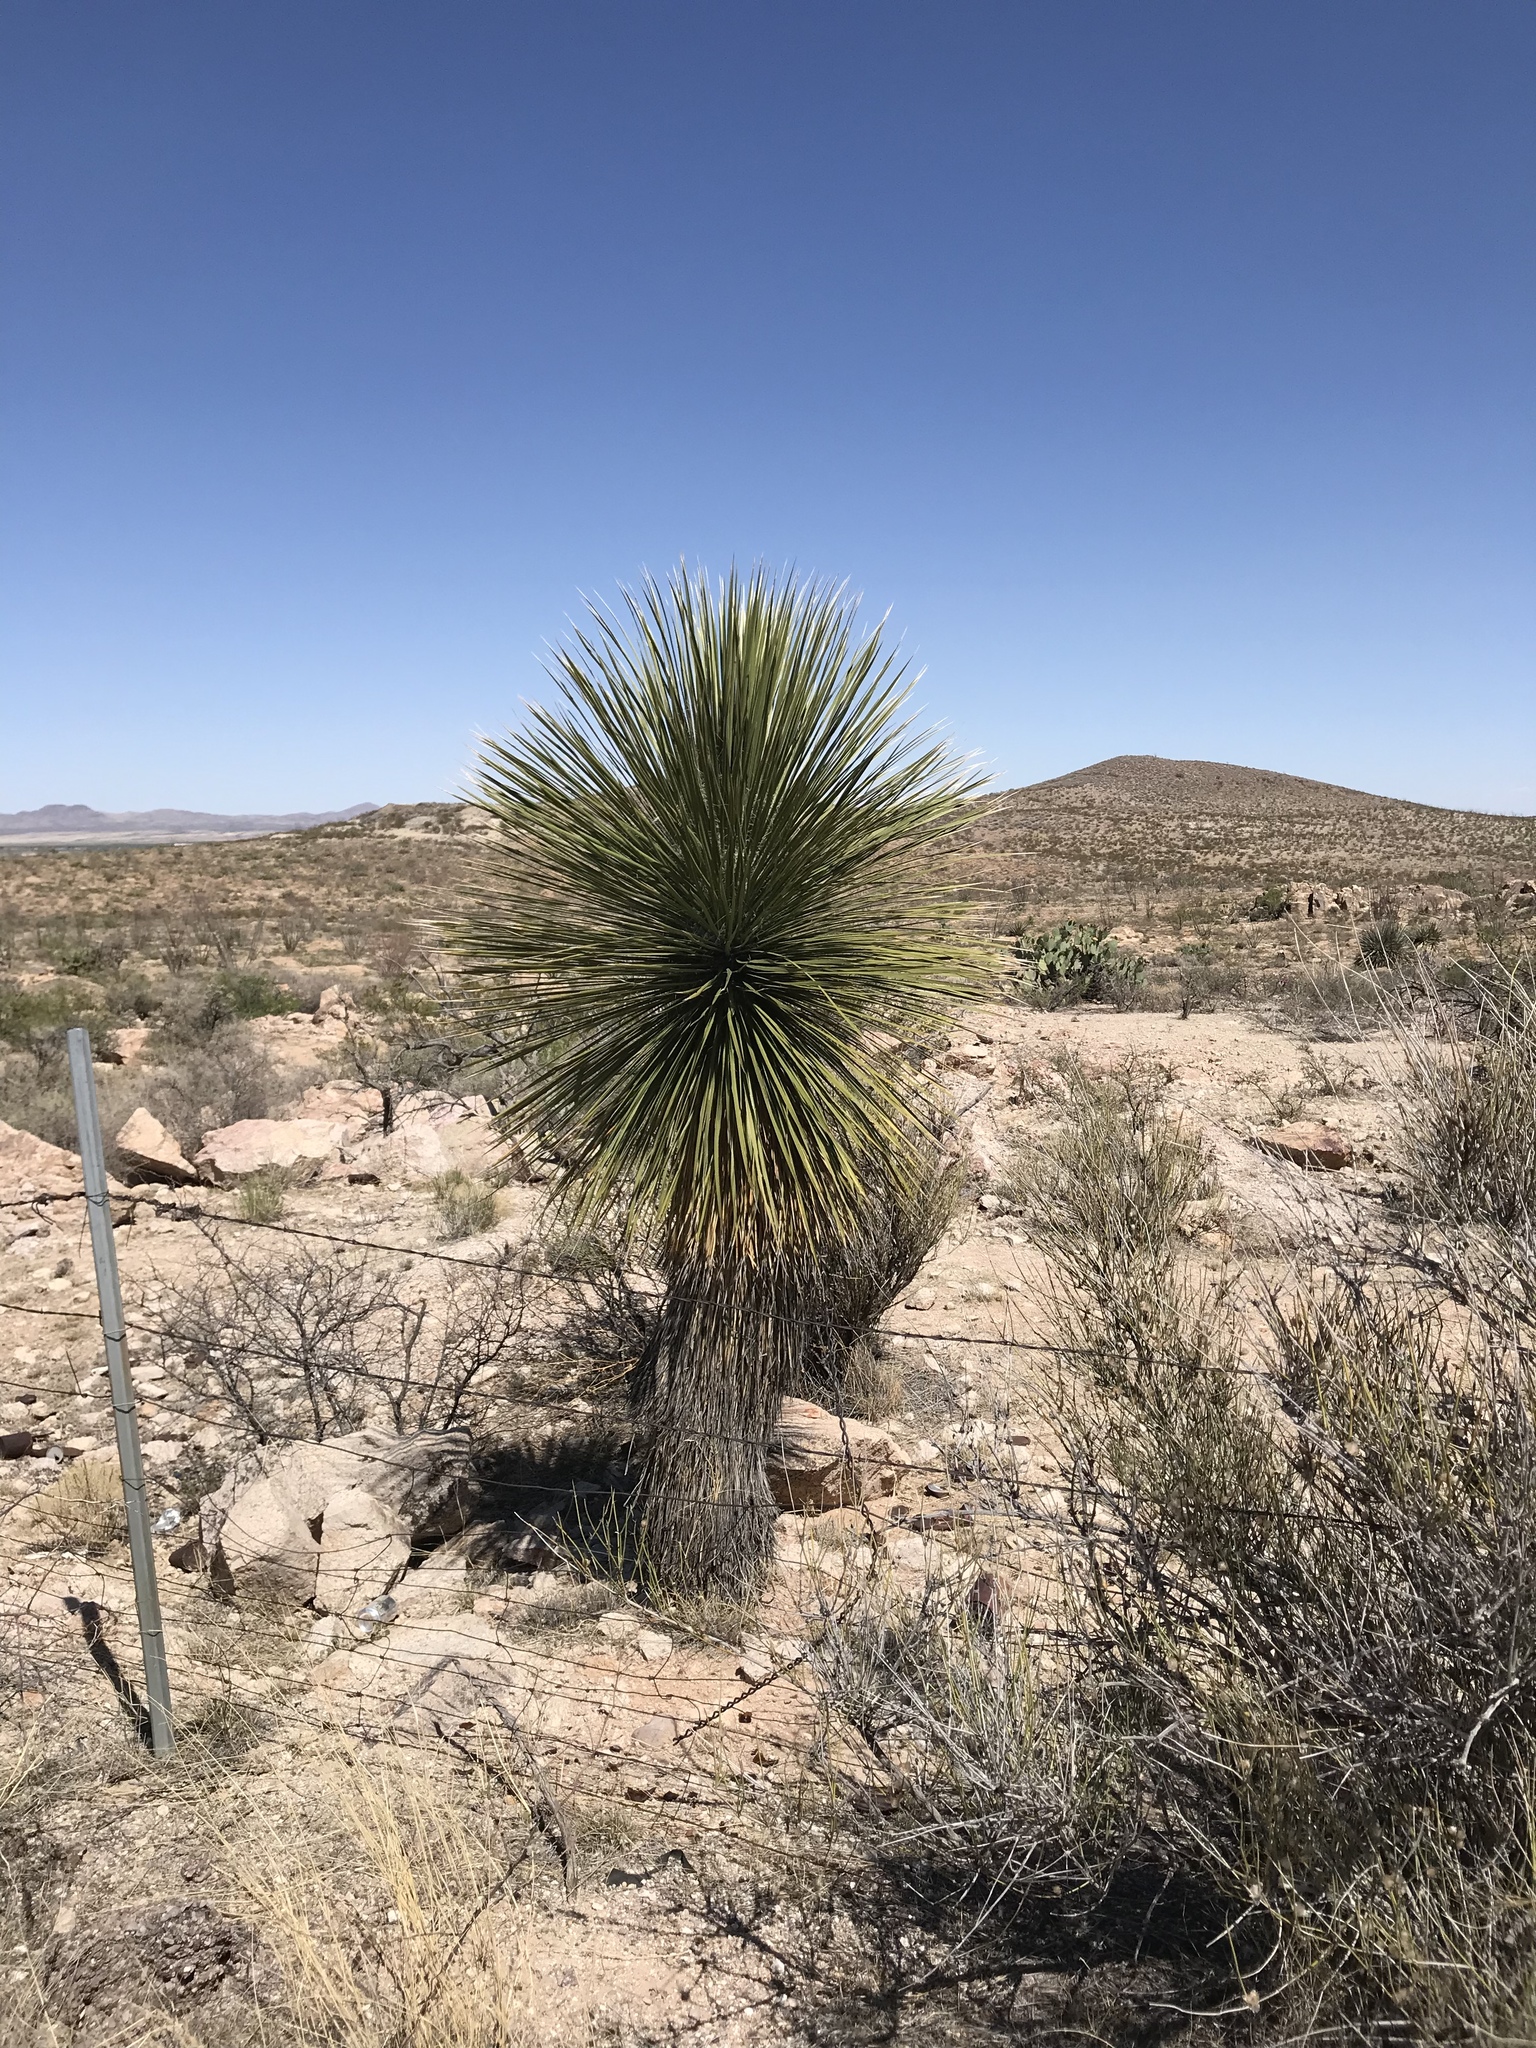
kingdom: Plantae
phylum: Tracheophyta
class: Liliopsida
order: Asparagales
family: Asparagaceae
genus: Yucca
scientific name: Yucca elata
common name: Palmella
